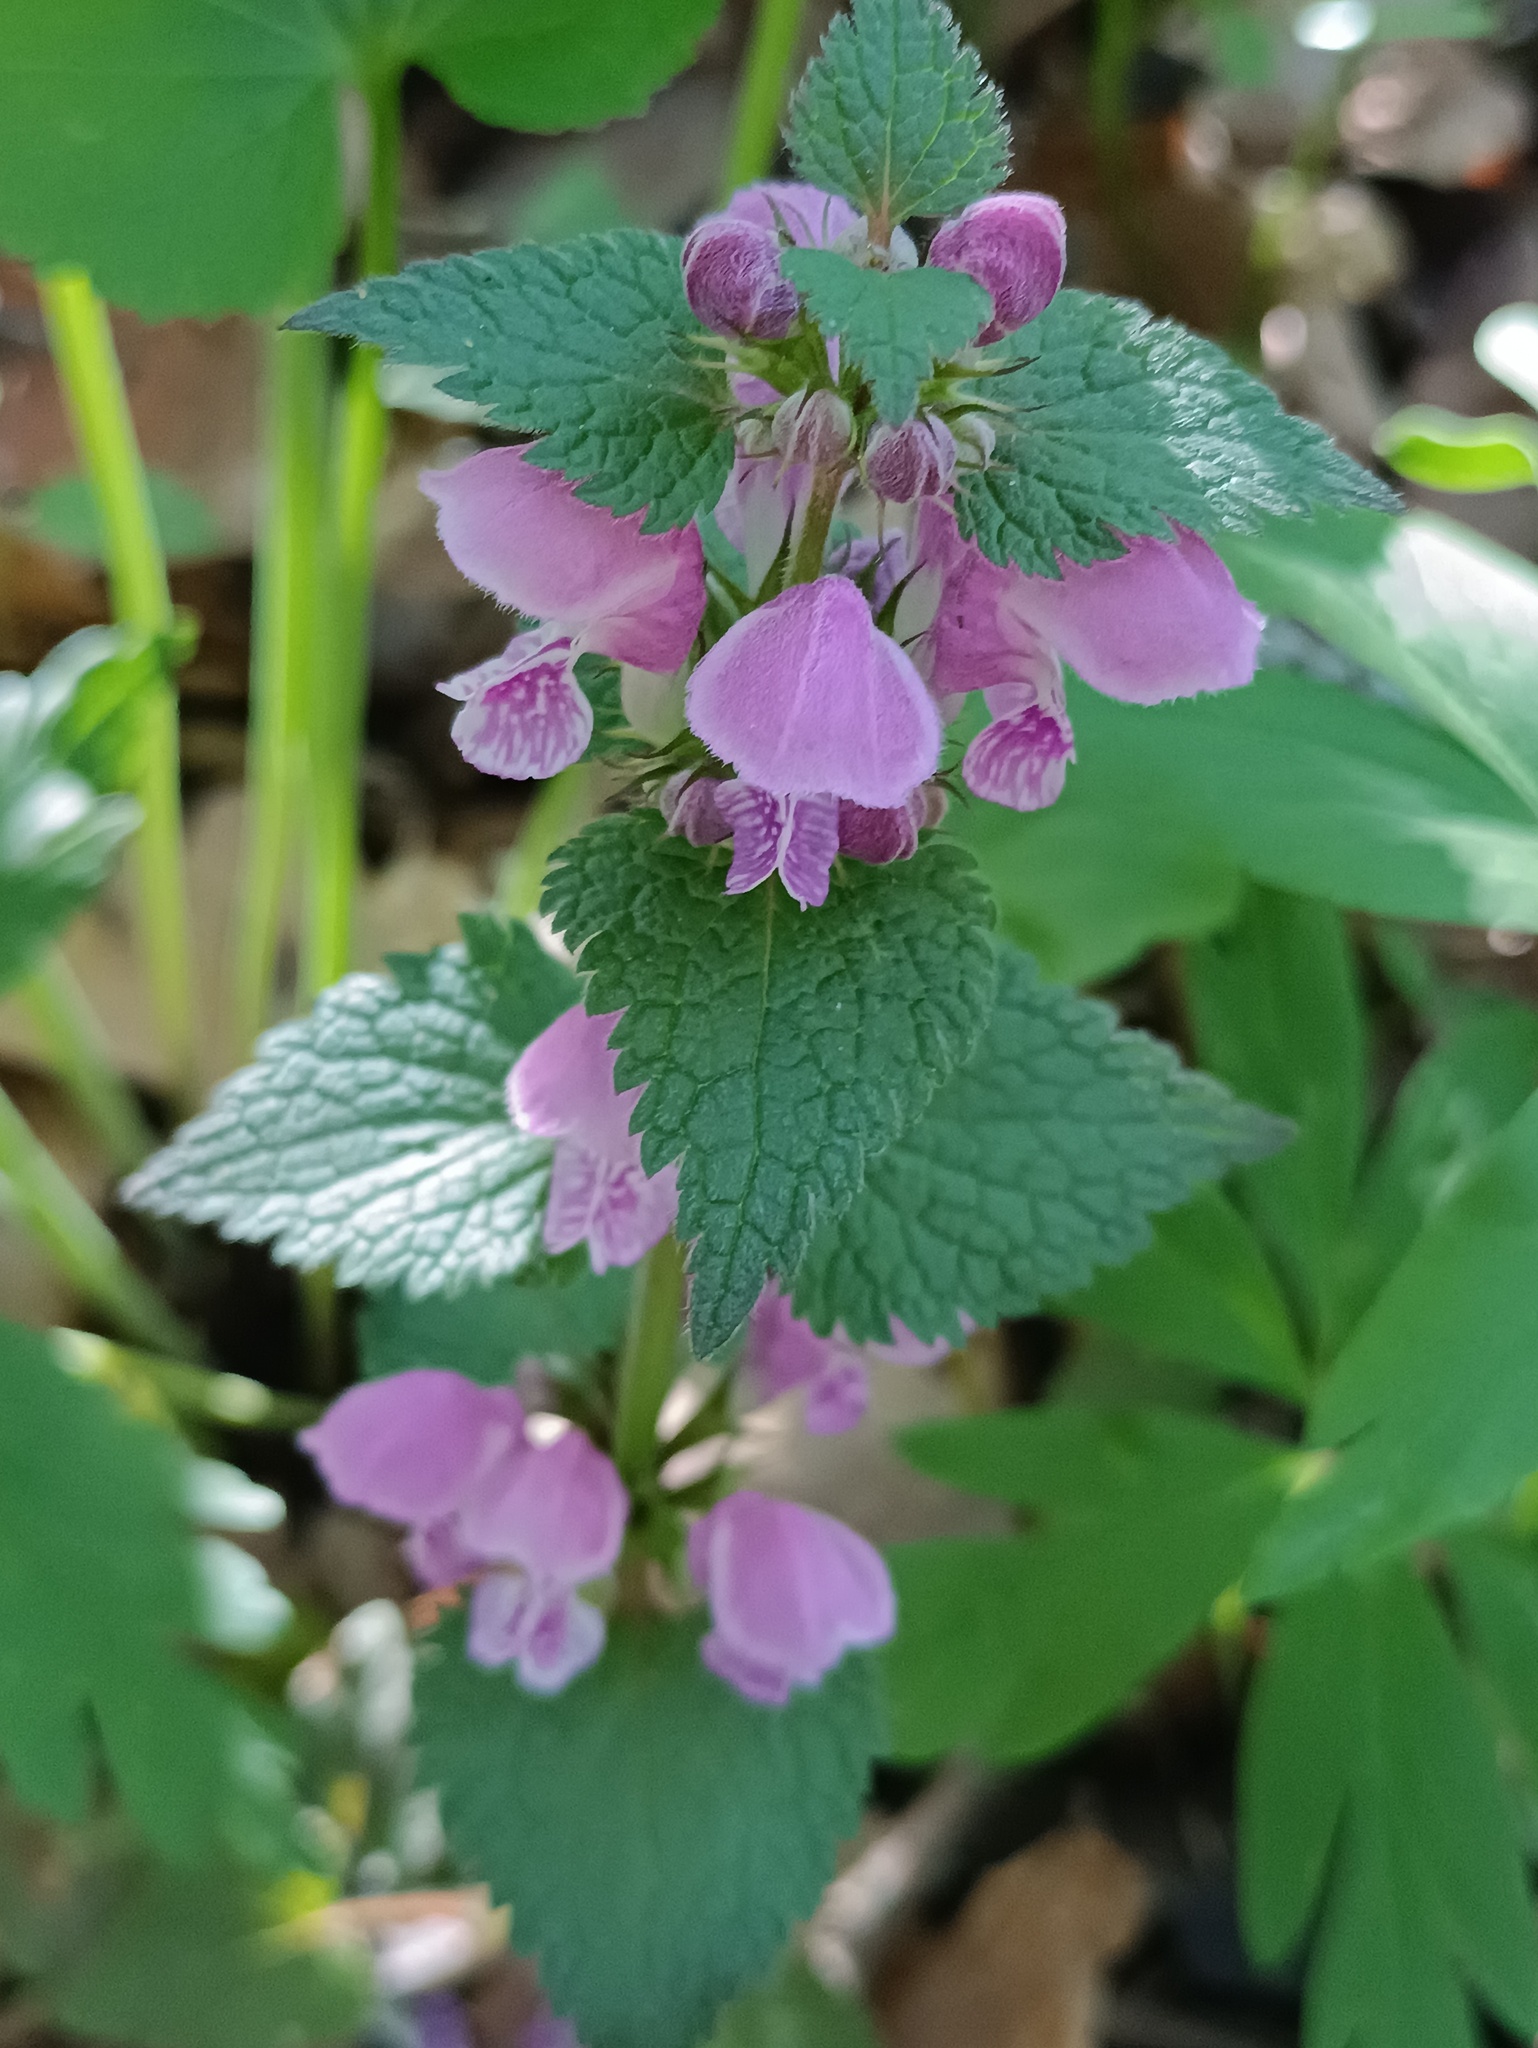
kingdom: Plantae
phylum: Tracheophyta
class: Magnoliopsida
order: Lamiales
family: Lamiaceae
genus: Lamium
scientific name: Lamium maculatum
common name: Spotted dead-nettle
